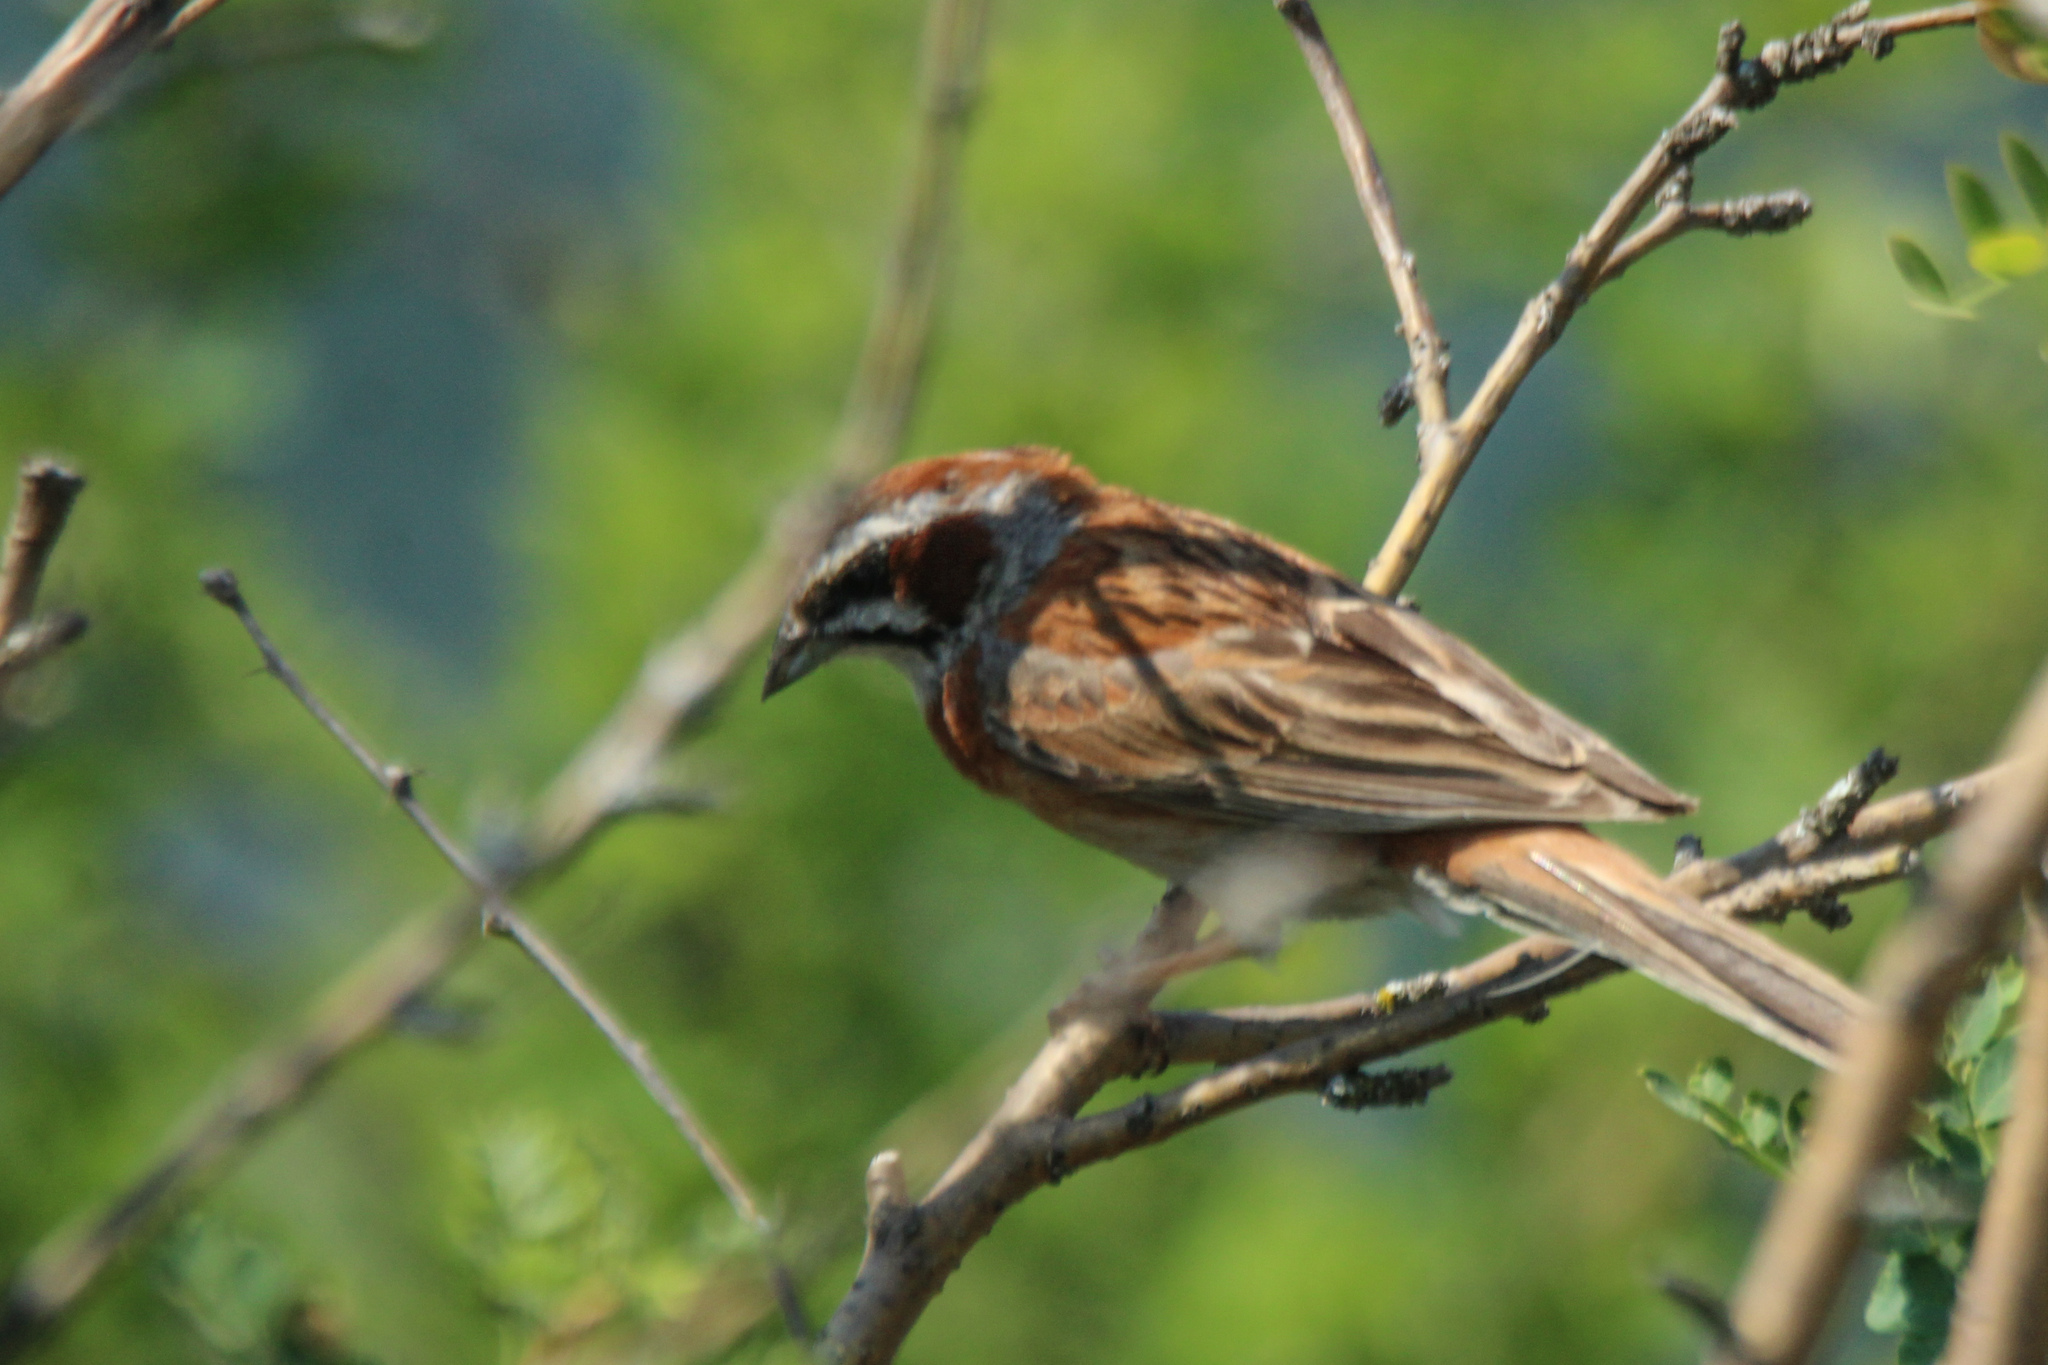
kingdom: Animalia
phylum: Chordata
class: Aves
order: Passeriformes
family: Emberizidae
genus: Emberiza
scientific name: Emberiza cioides
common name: Meadow bunting
